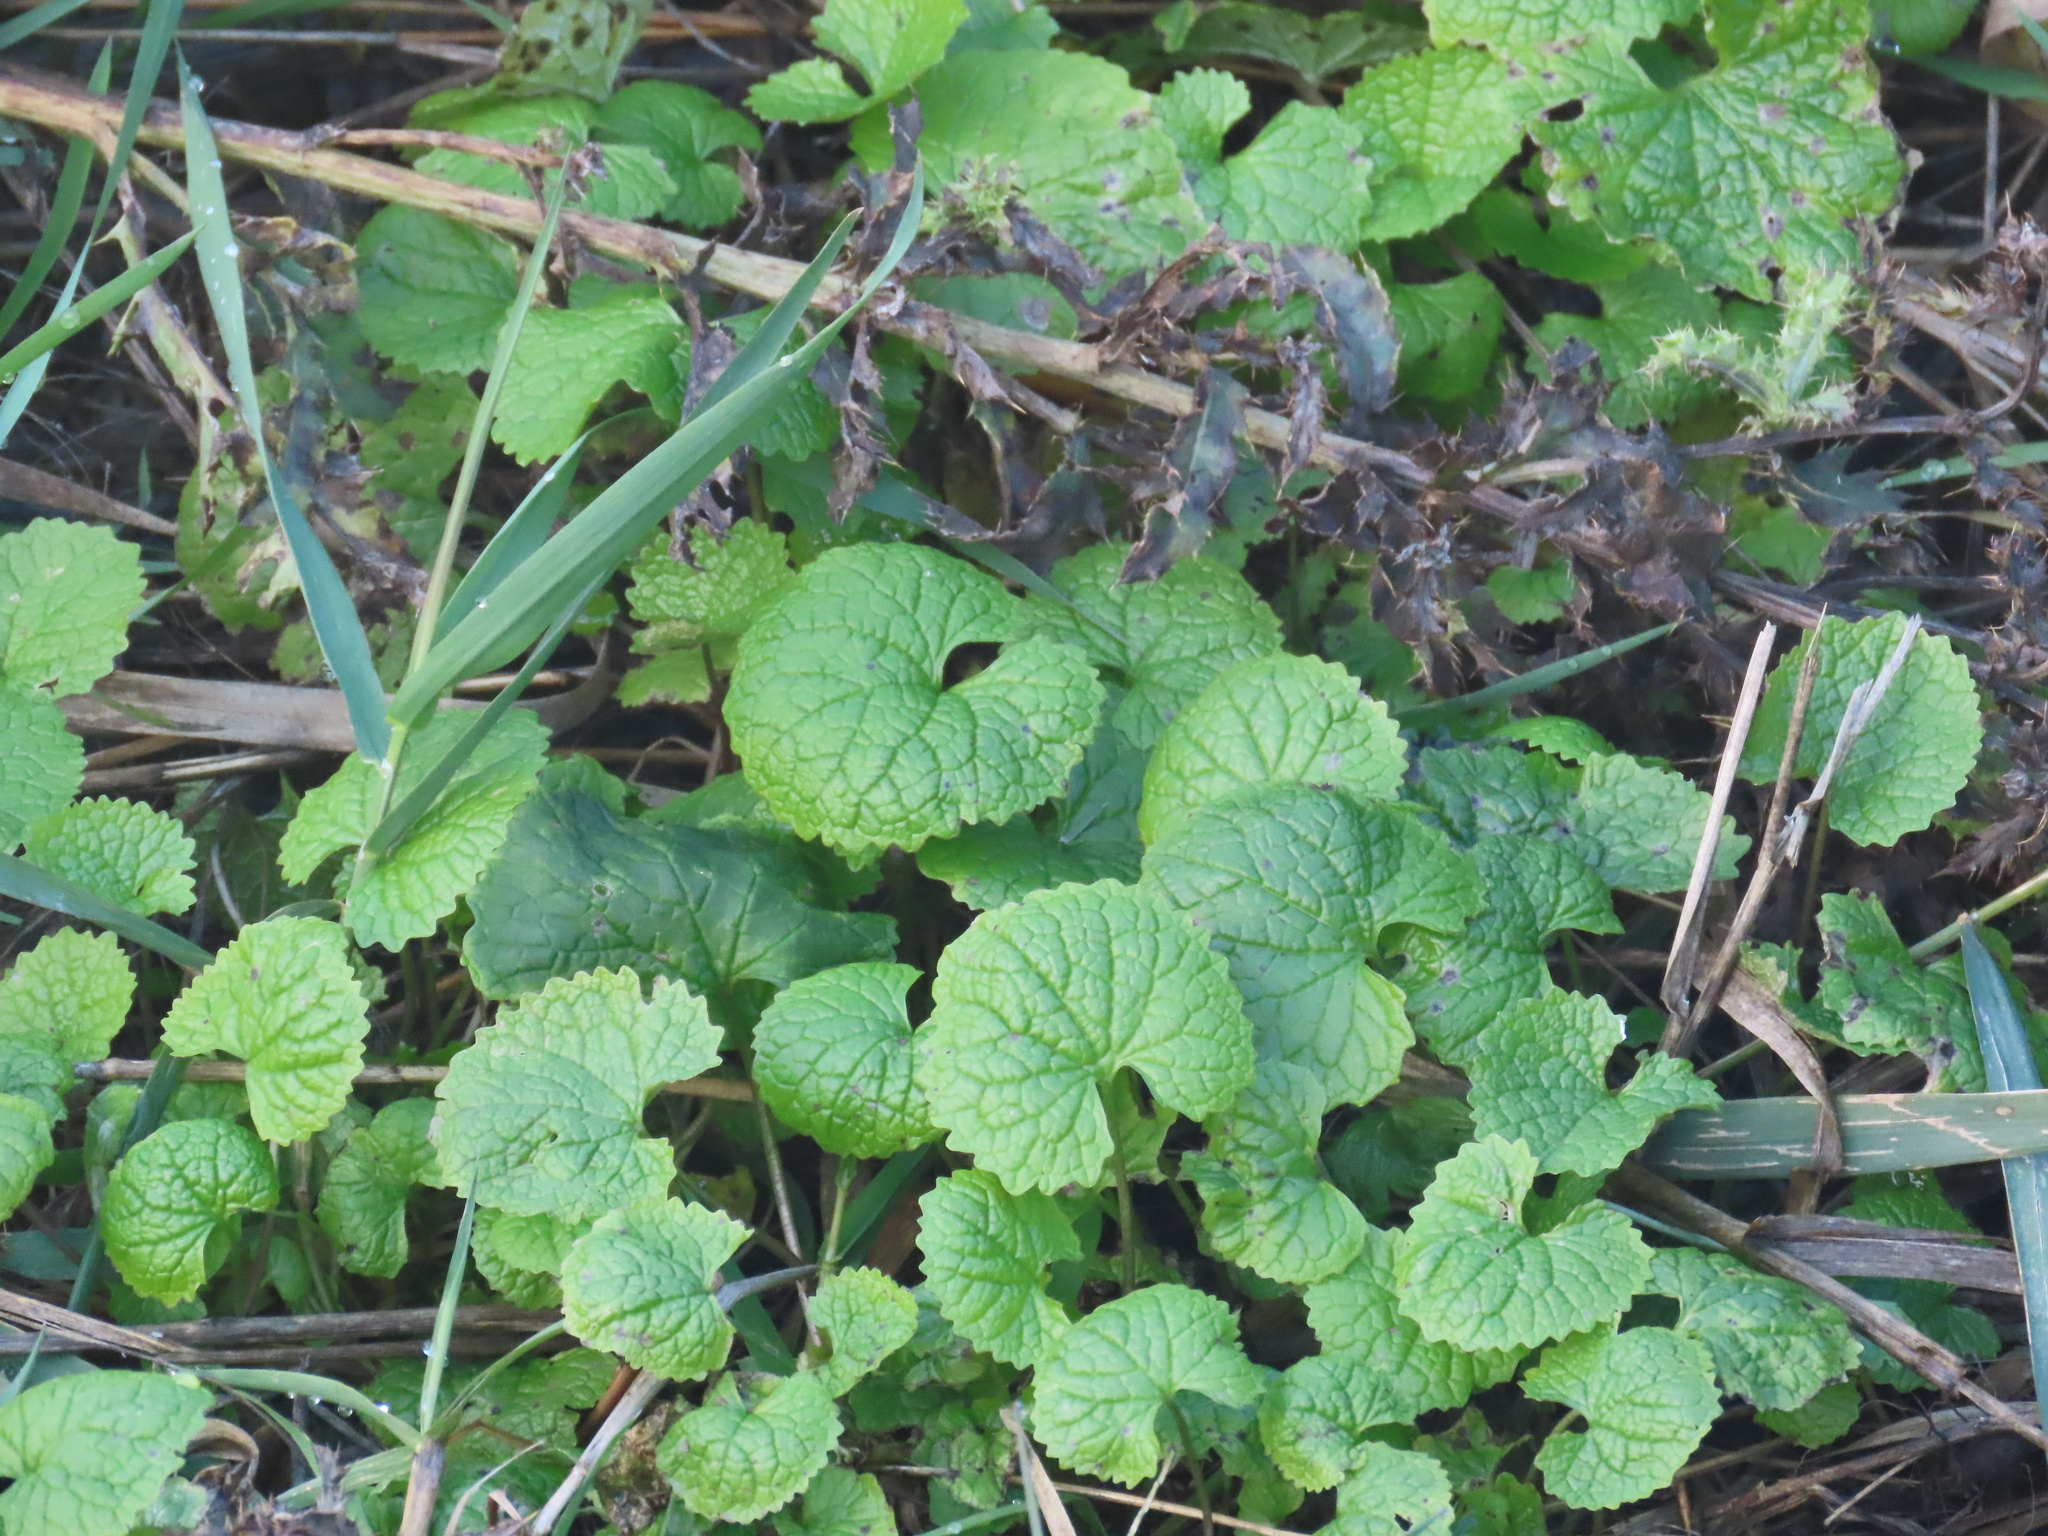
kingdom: Plantae
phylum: Tracheophyta
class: Magnoliopsida
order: Brassicales
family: Brassicaceae
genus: Alliaria
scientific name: Alliaria petiolata
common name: Garlic mustard
